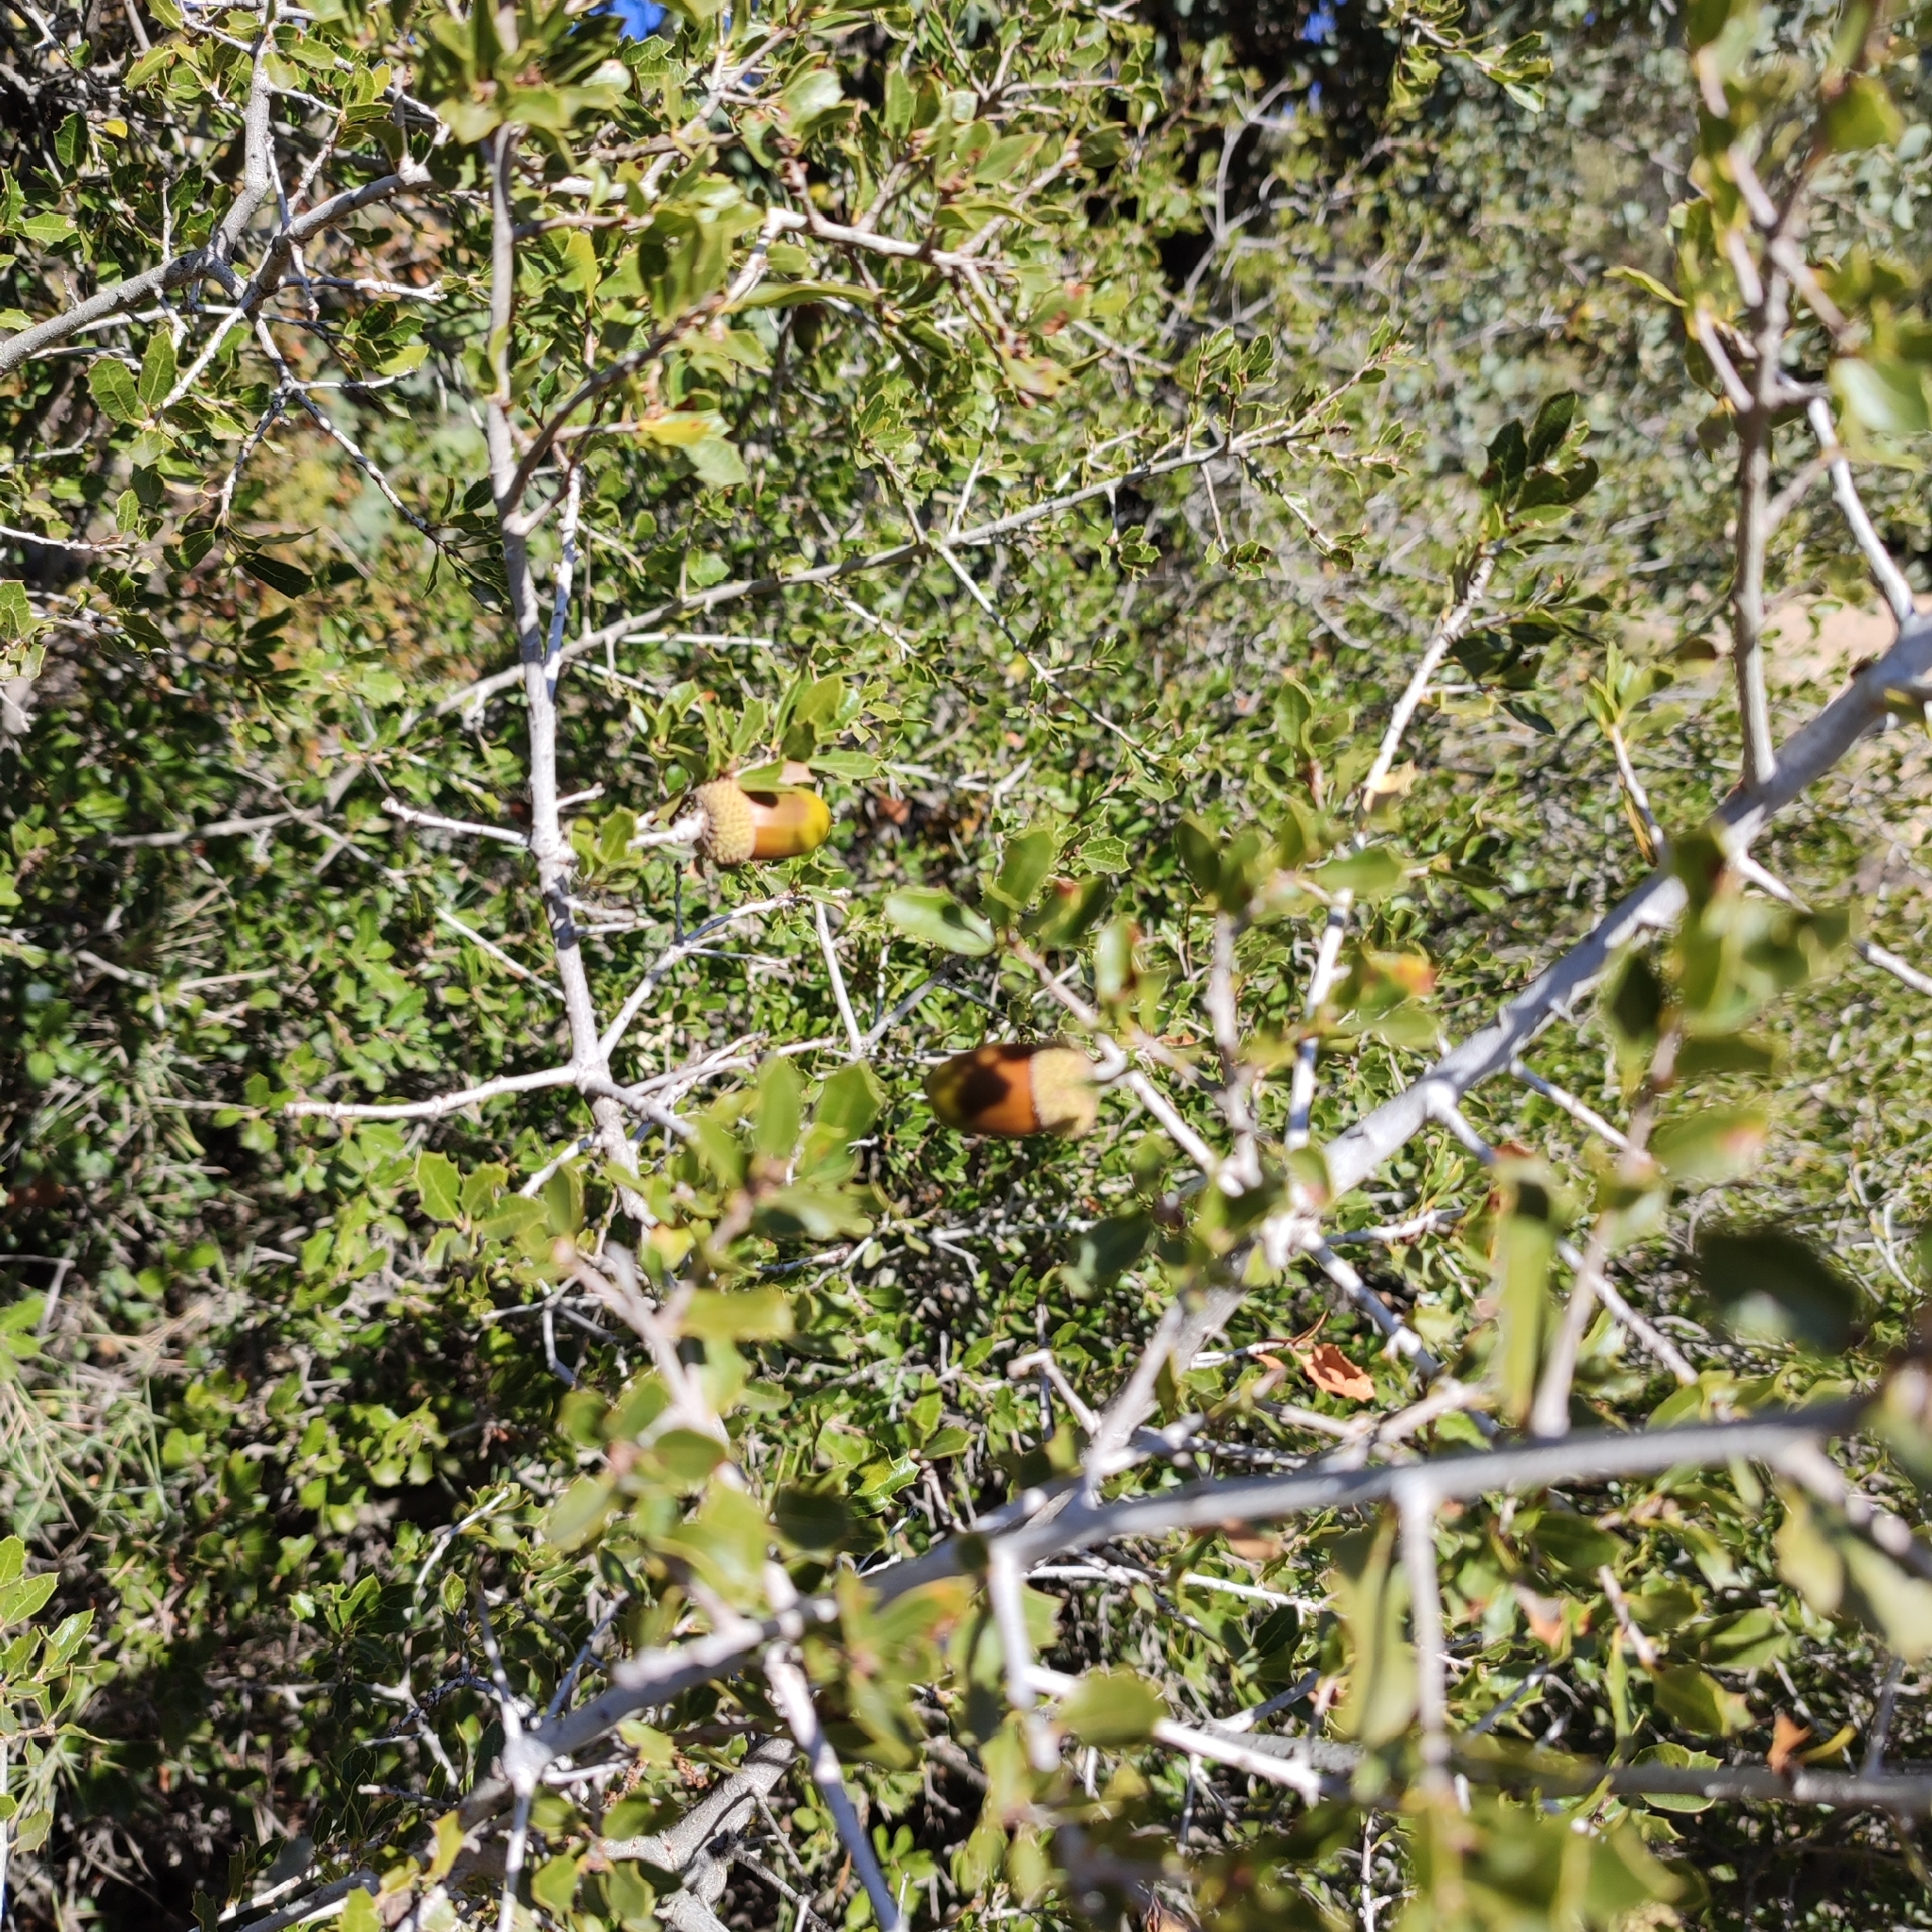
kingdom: Plantae
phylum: Tracheophyta
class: Magnoliopsida
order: Fagales
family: Fagaceae
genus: Quercus
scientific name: Quercus coccifera
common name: Kermes oak
